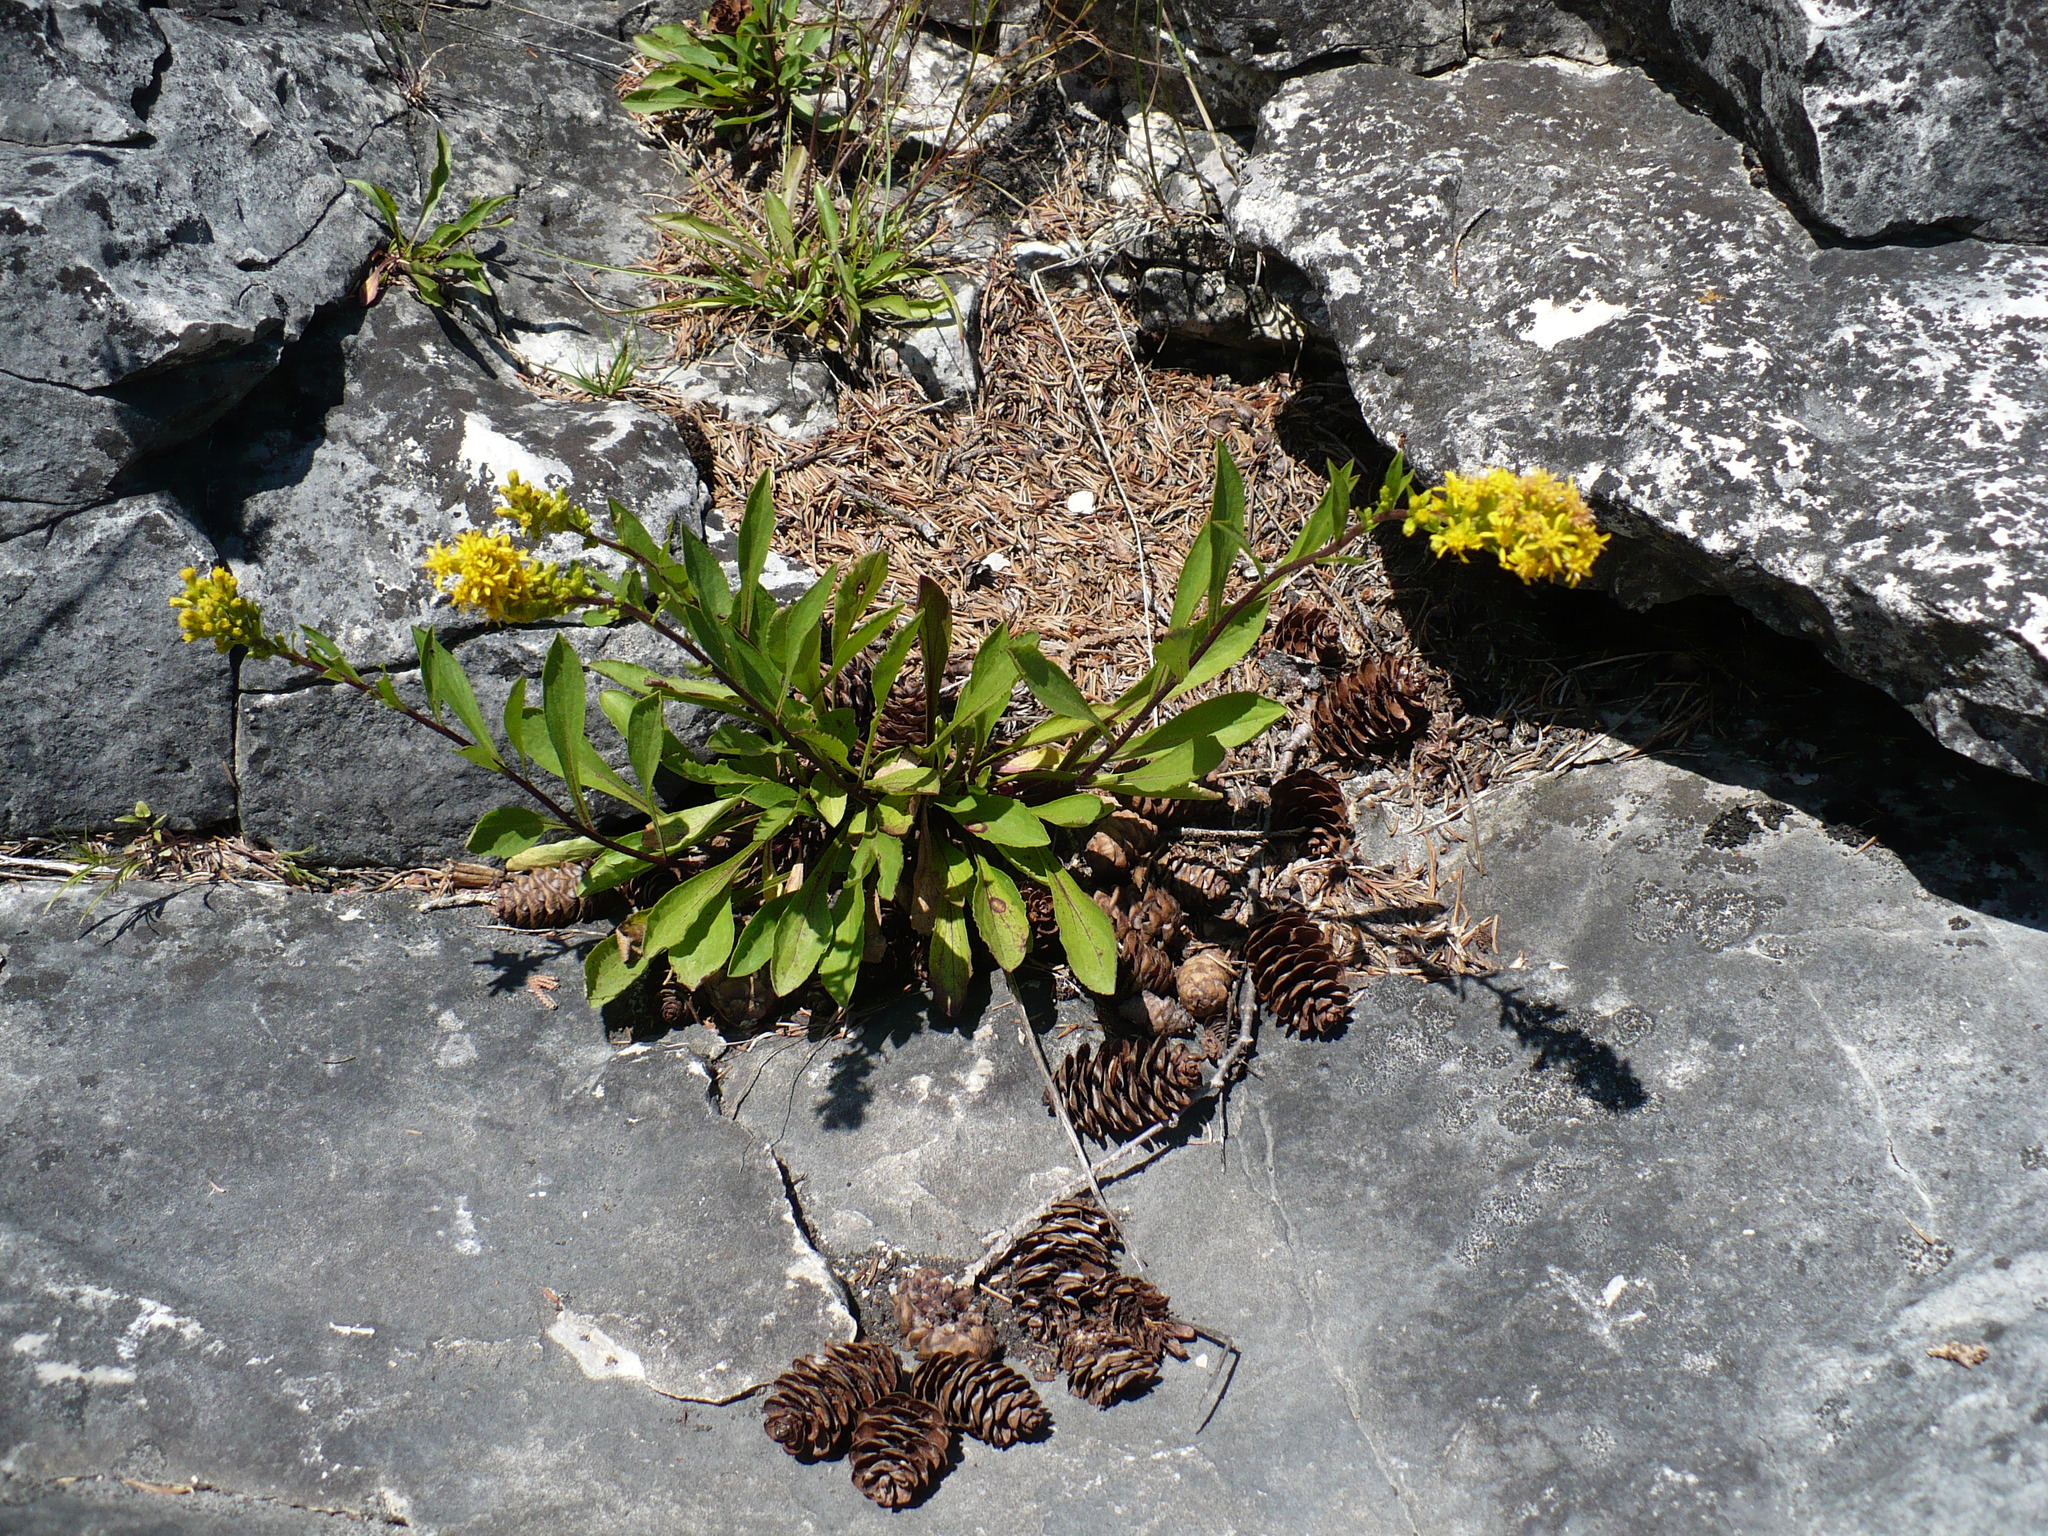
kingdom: Plantae
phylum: Tracheophyta
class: Magnoliopsida
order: Asterales
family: Asteraceae
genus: Solidago
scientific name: Solidago ontarioensis
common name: Ontario goldenrod
